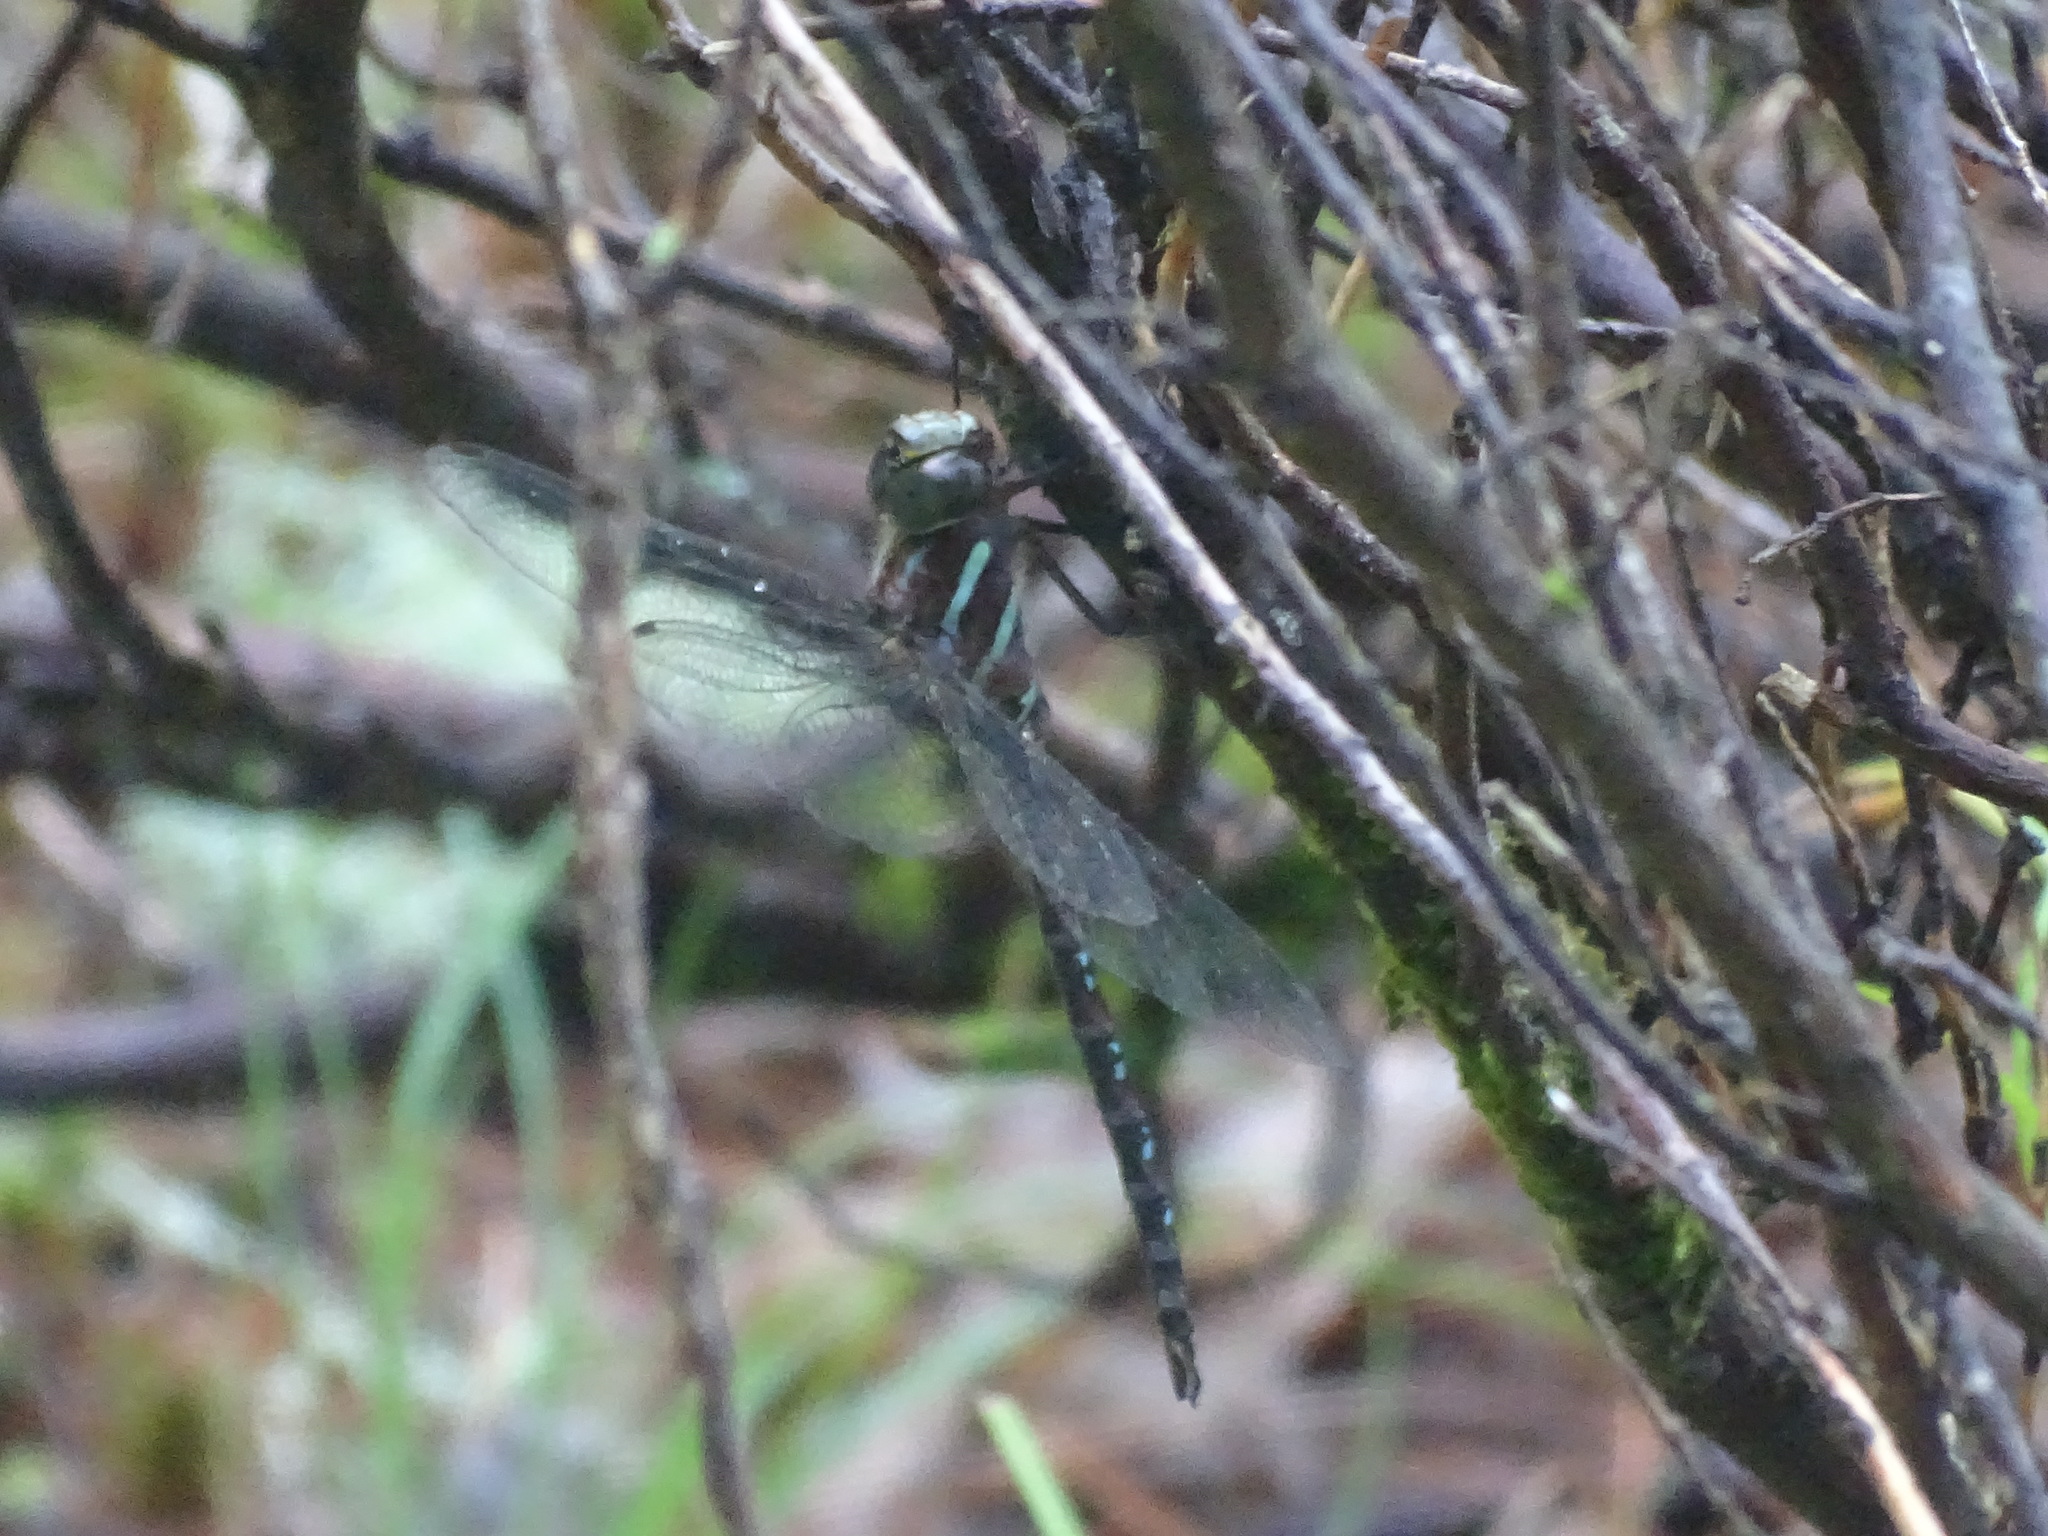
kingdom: Animalia
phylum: Arthropoda
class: Insecta
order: Odonata
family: Aeshnidae
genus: Aeshna
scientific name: Aeshna tuberculifera
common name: Aeschne à tubercules
